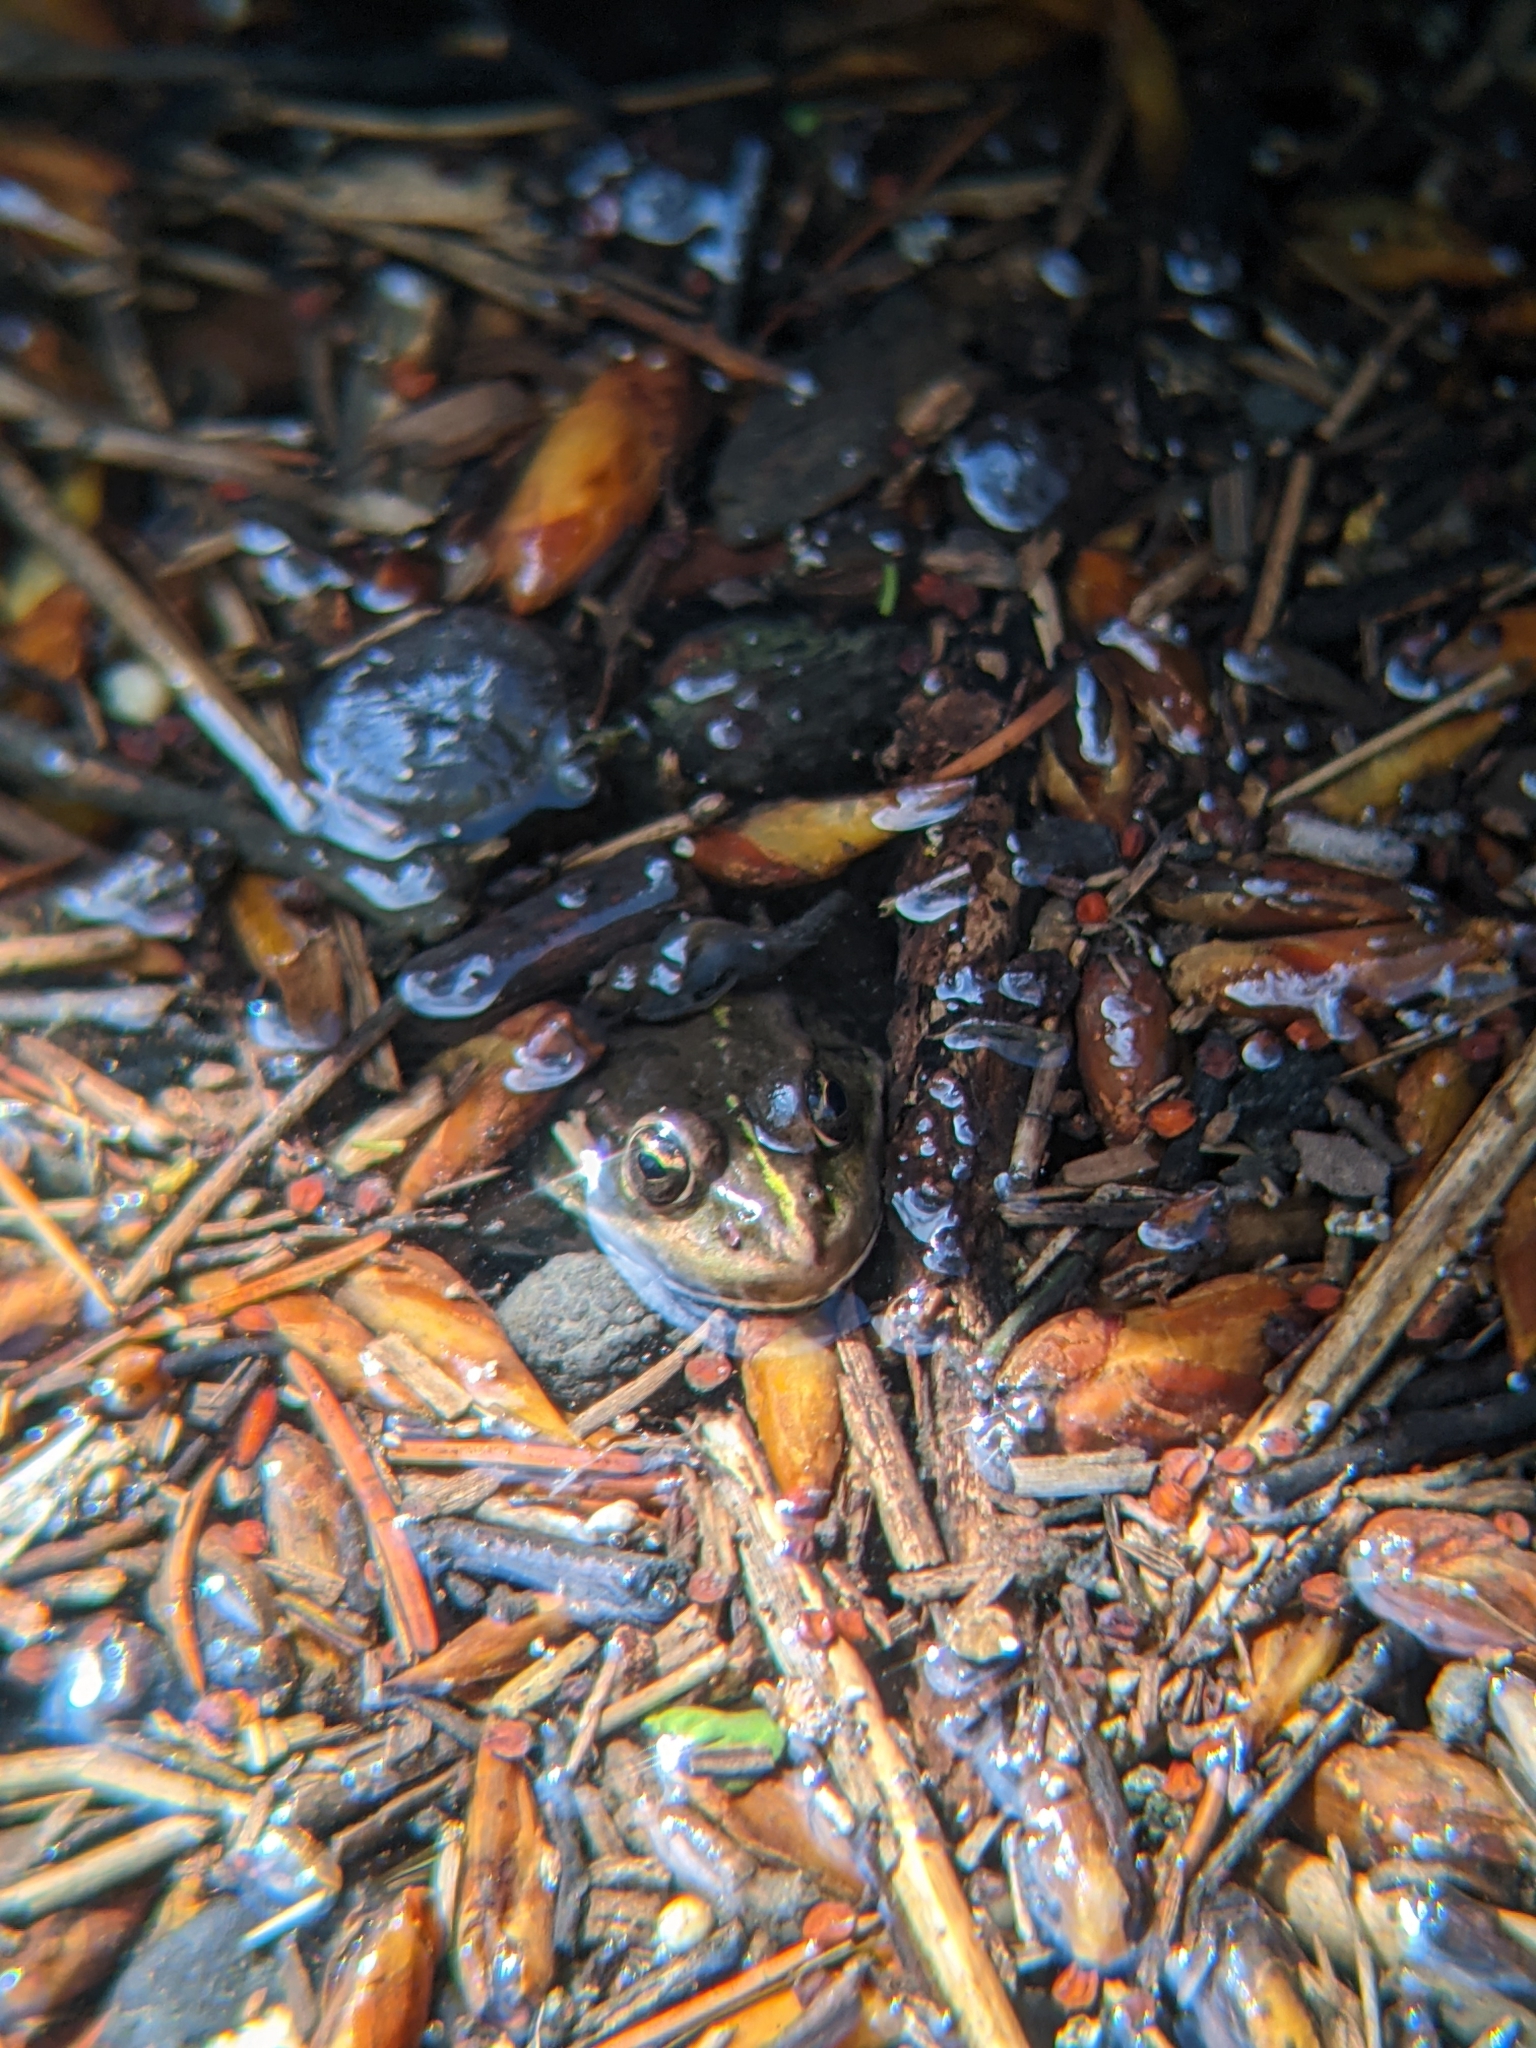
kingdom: Animalia
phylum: Chordata
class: Amphibia
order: Anura
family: Ranidae
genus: Pelophylax
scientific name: Pelophylax
